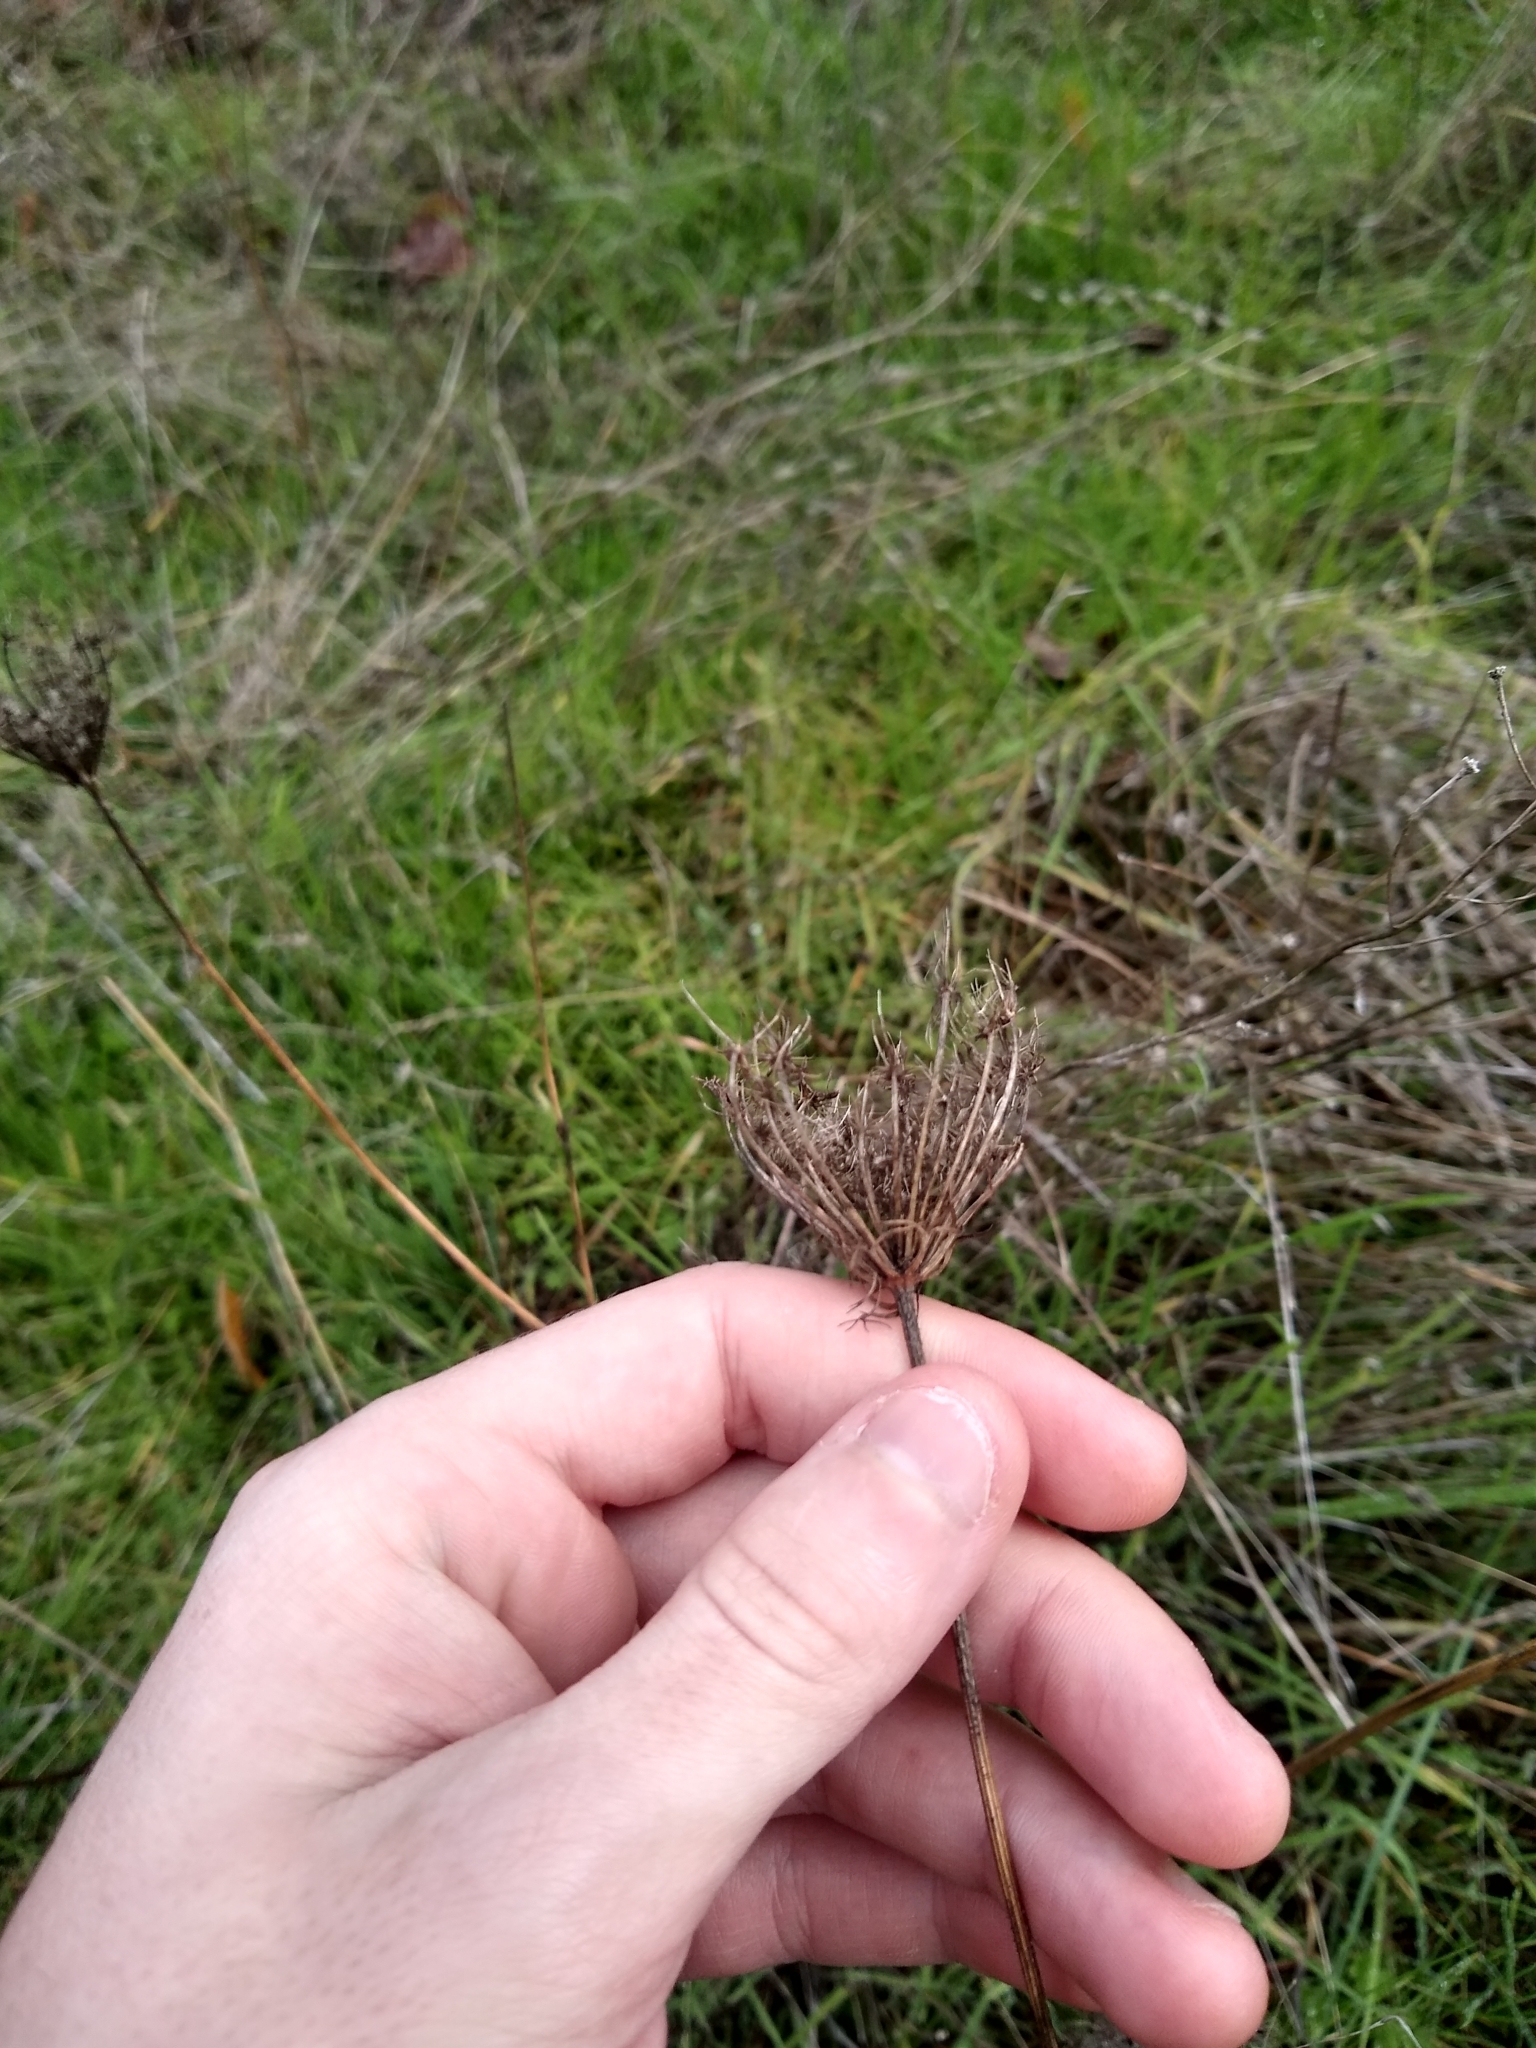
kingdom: Plantae
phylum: Tracheophyta
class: Magnoliopsida
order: Apiales
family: Apiaceae
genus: Daucus
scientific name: Daucus carota
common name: Wild carrot
